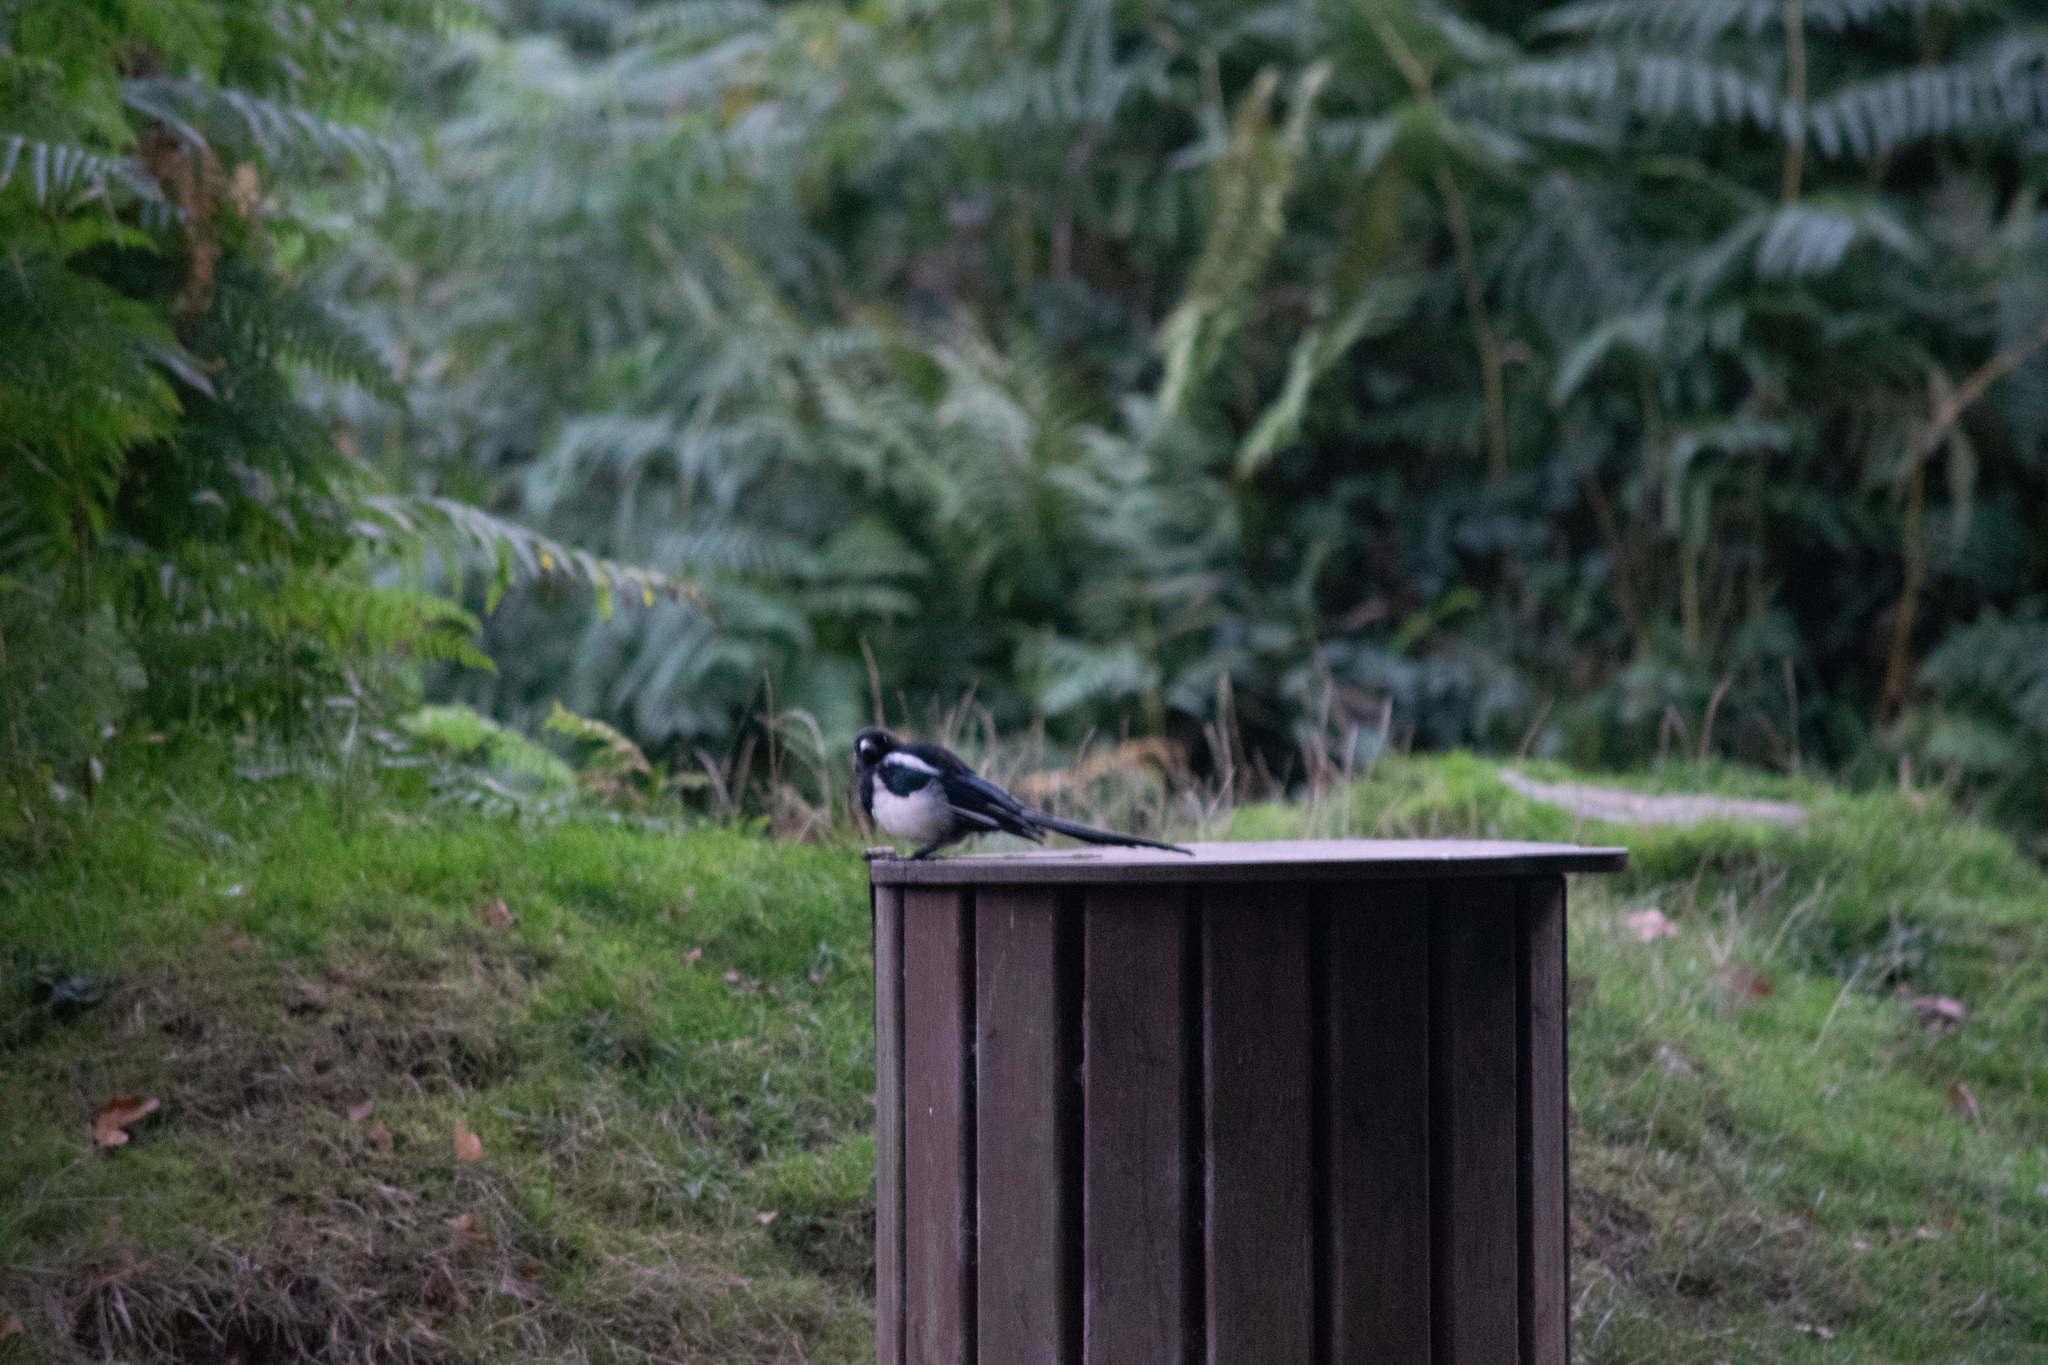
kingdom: Animalia
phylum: Chordata
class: Aves
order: Passeriformes
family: Corvidae
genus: Pica
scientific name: Pica pica
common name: Eurasian magpie
